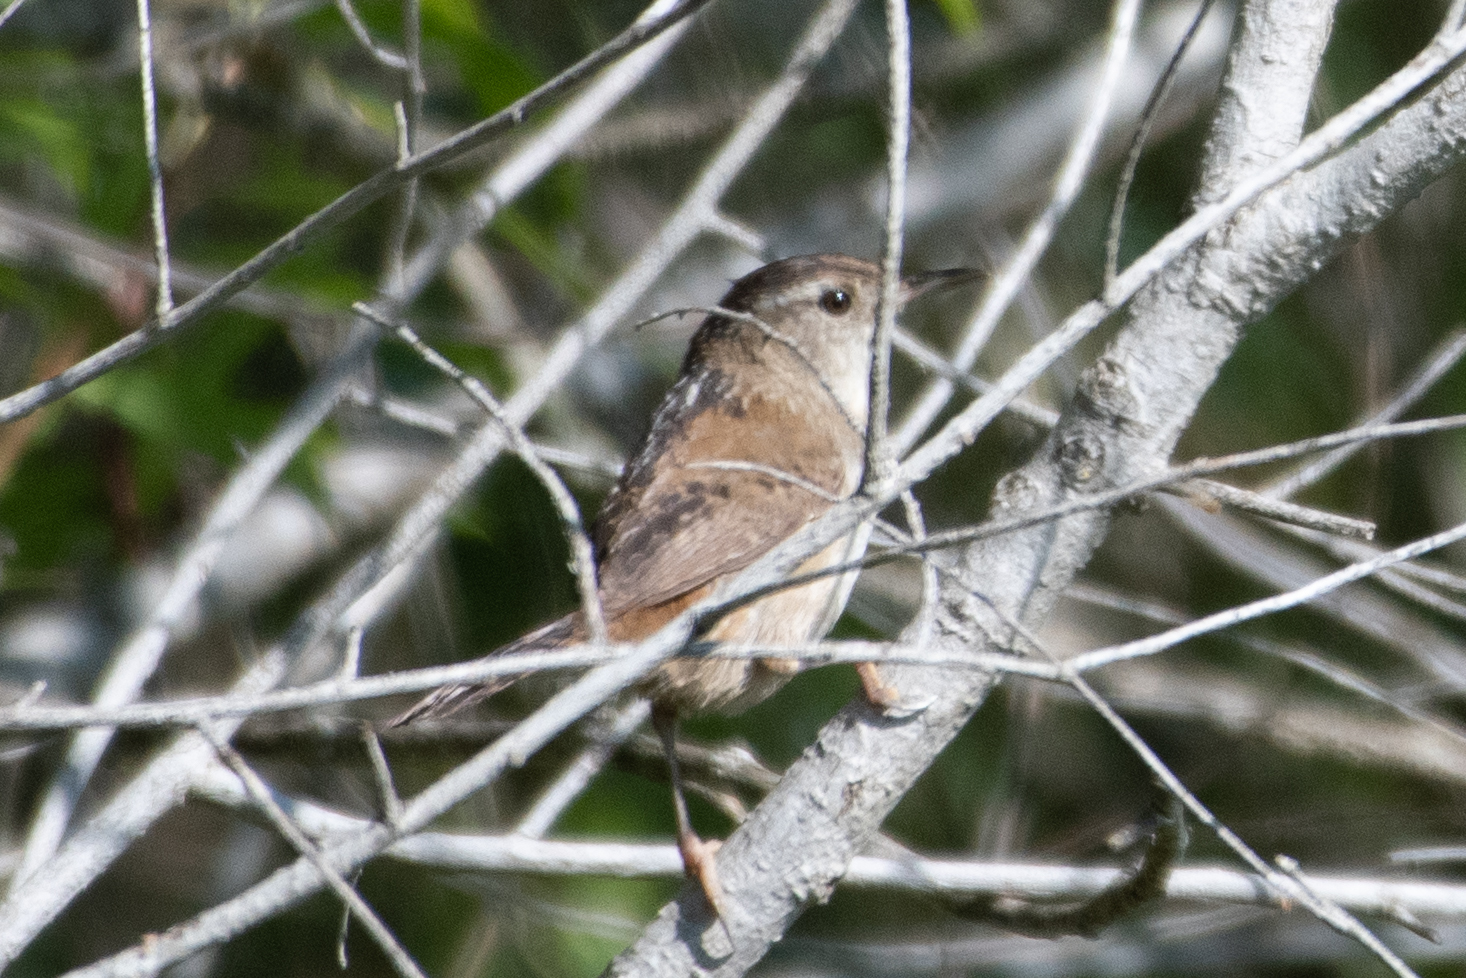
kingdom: Animalia
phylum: Chordata
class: Aves
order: Passeriformes
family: Troglodytidae
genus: Cistothorus
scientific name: Cistothorus palustris
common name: Marsh wren
